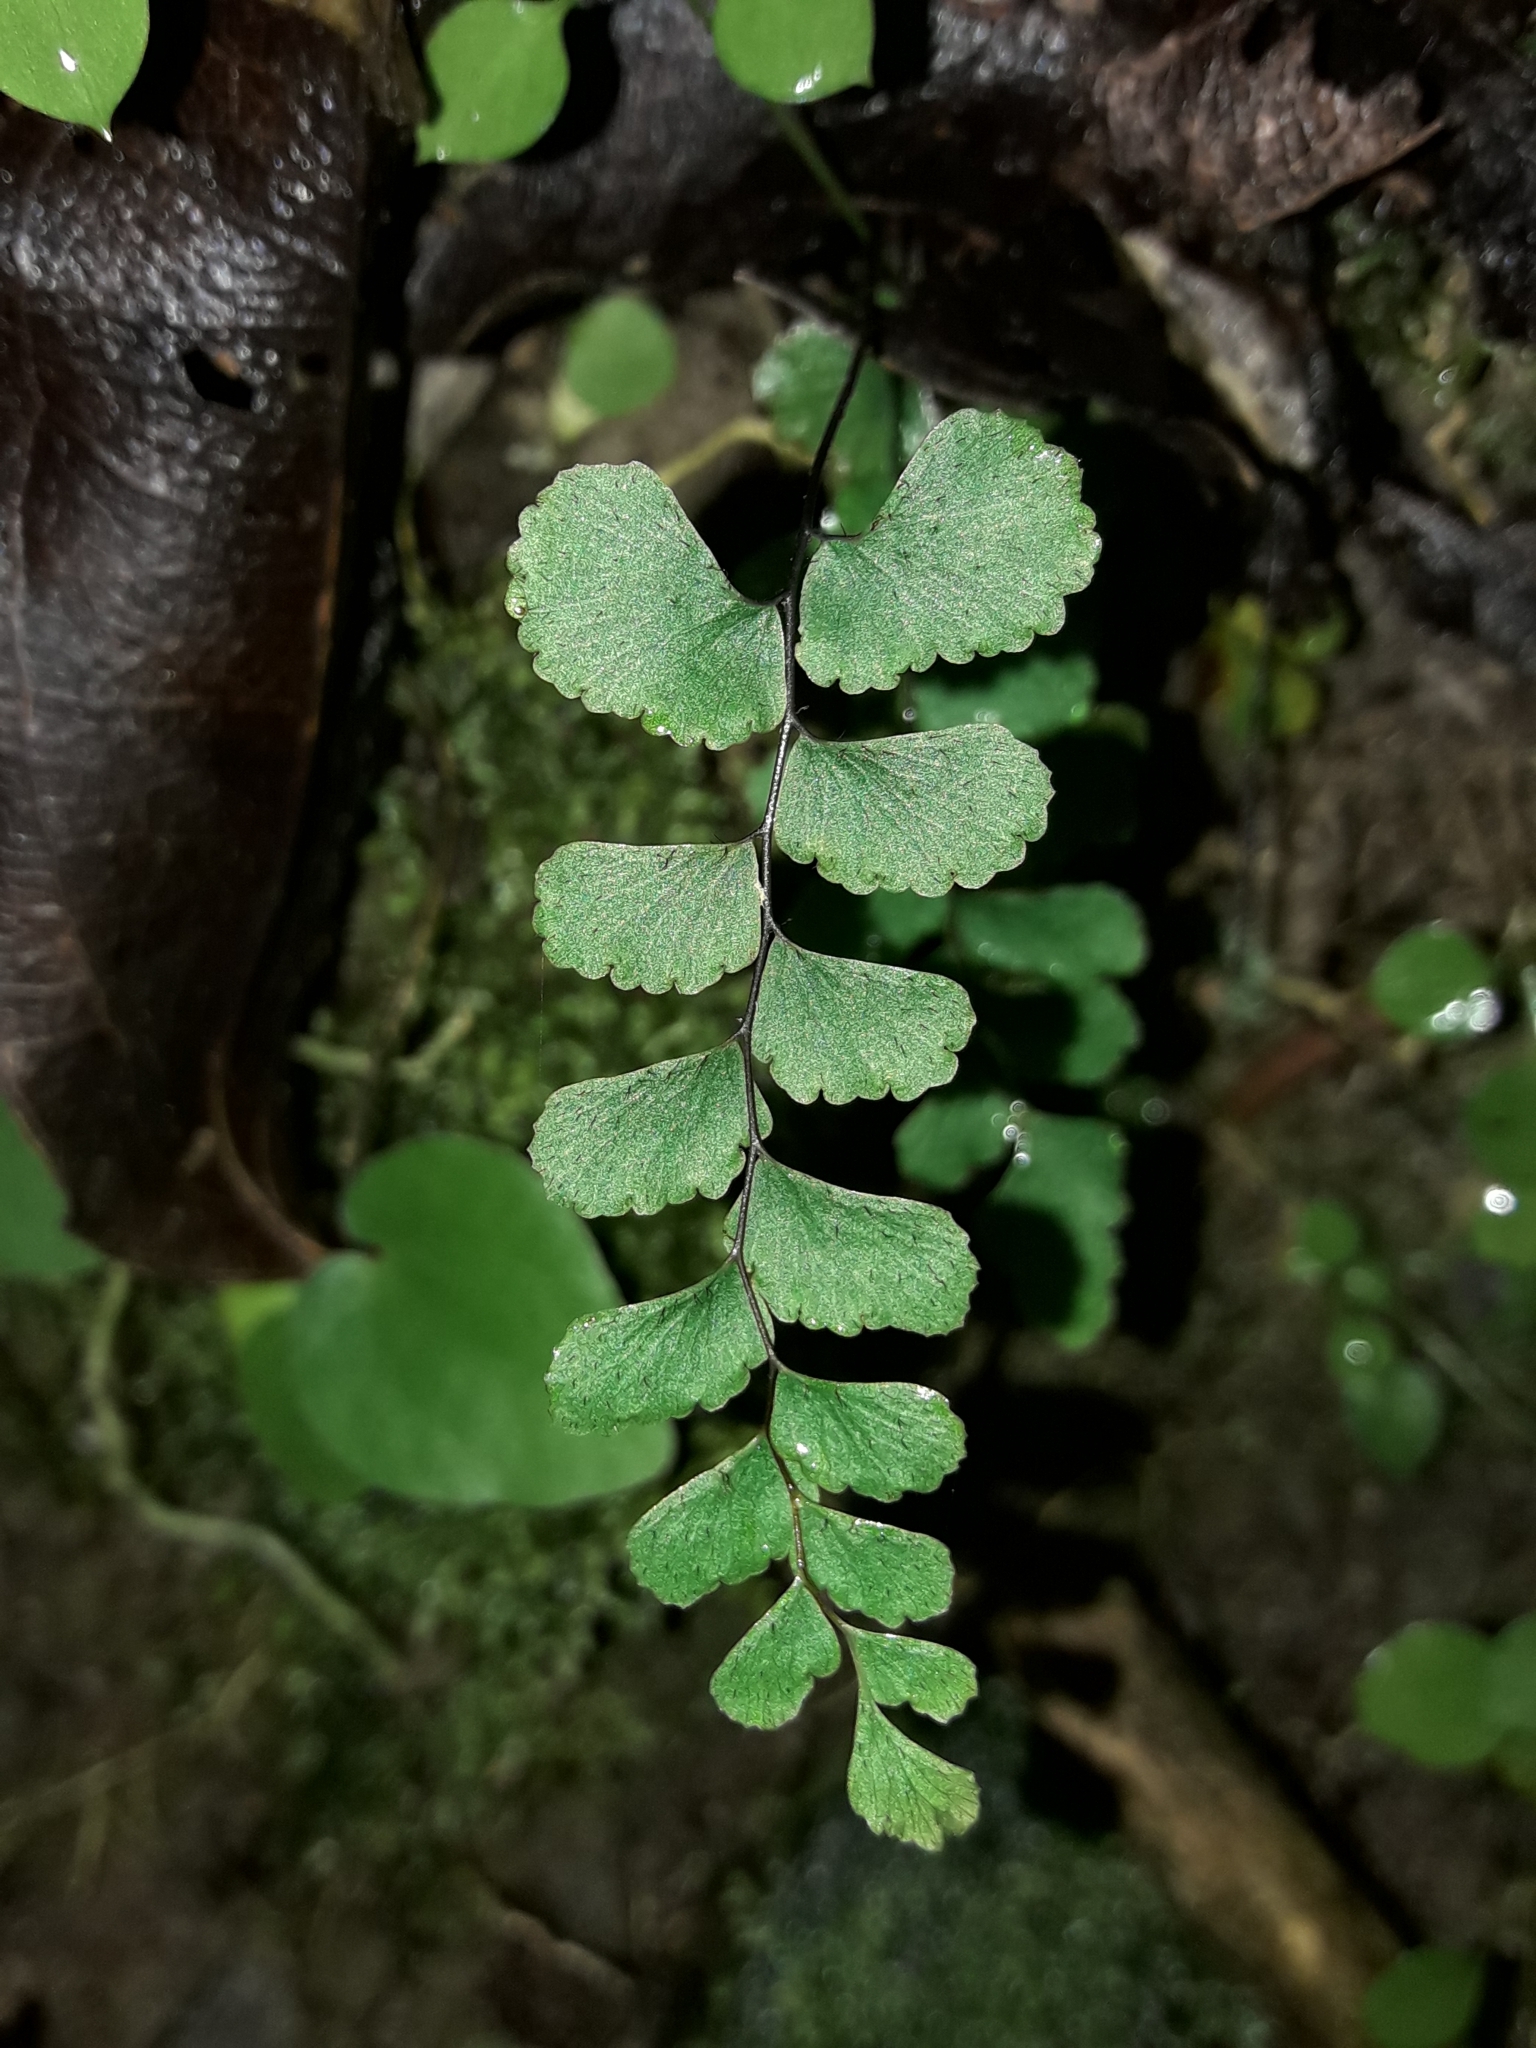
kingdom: Plantae
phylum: Tracheophyta
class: Polypodiopsida
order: Polypodiales
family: Pteridaceae
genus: Adiantum
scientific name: Adiantum diaphanum
